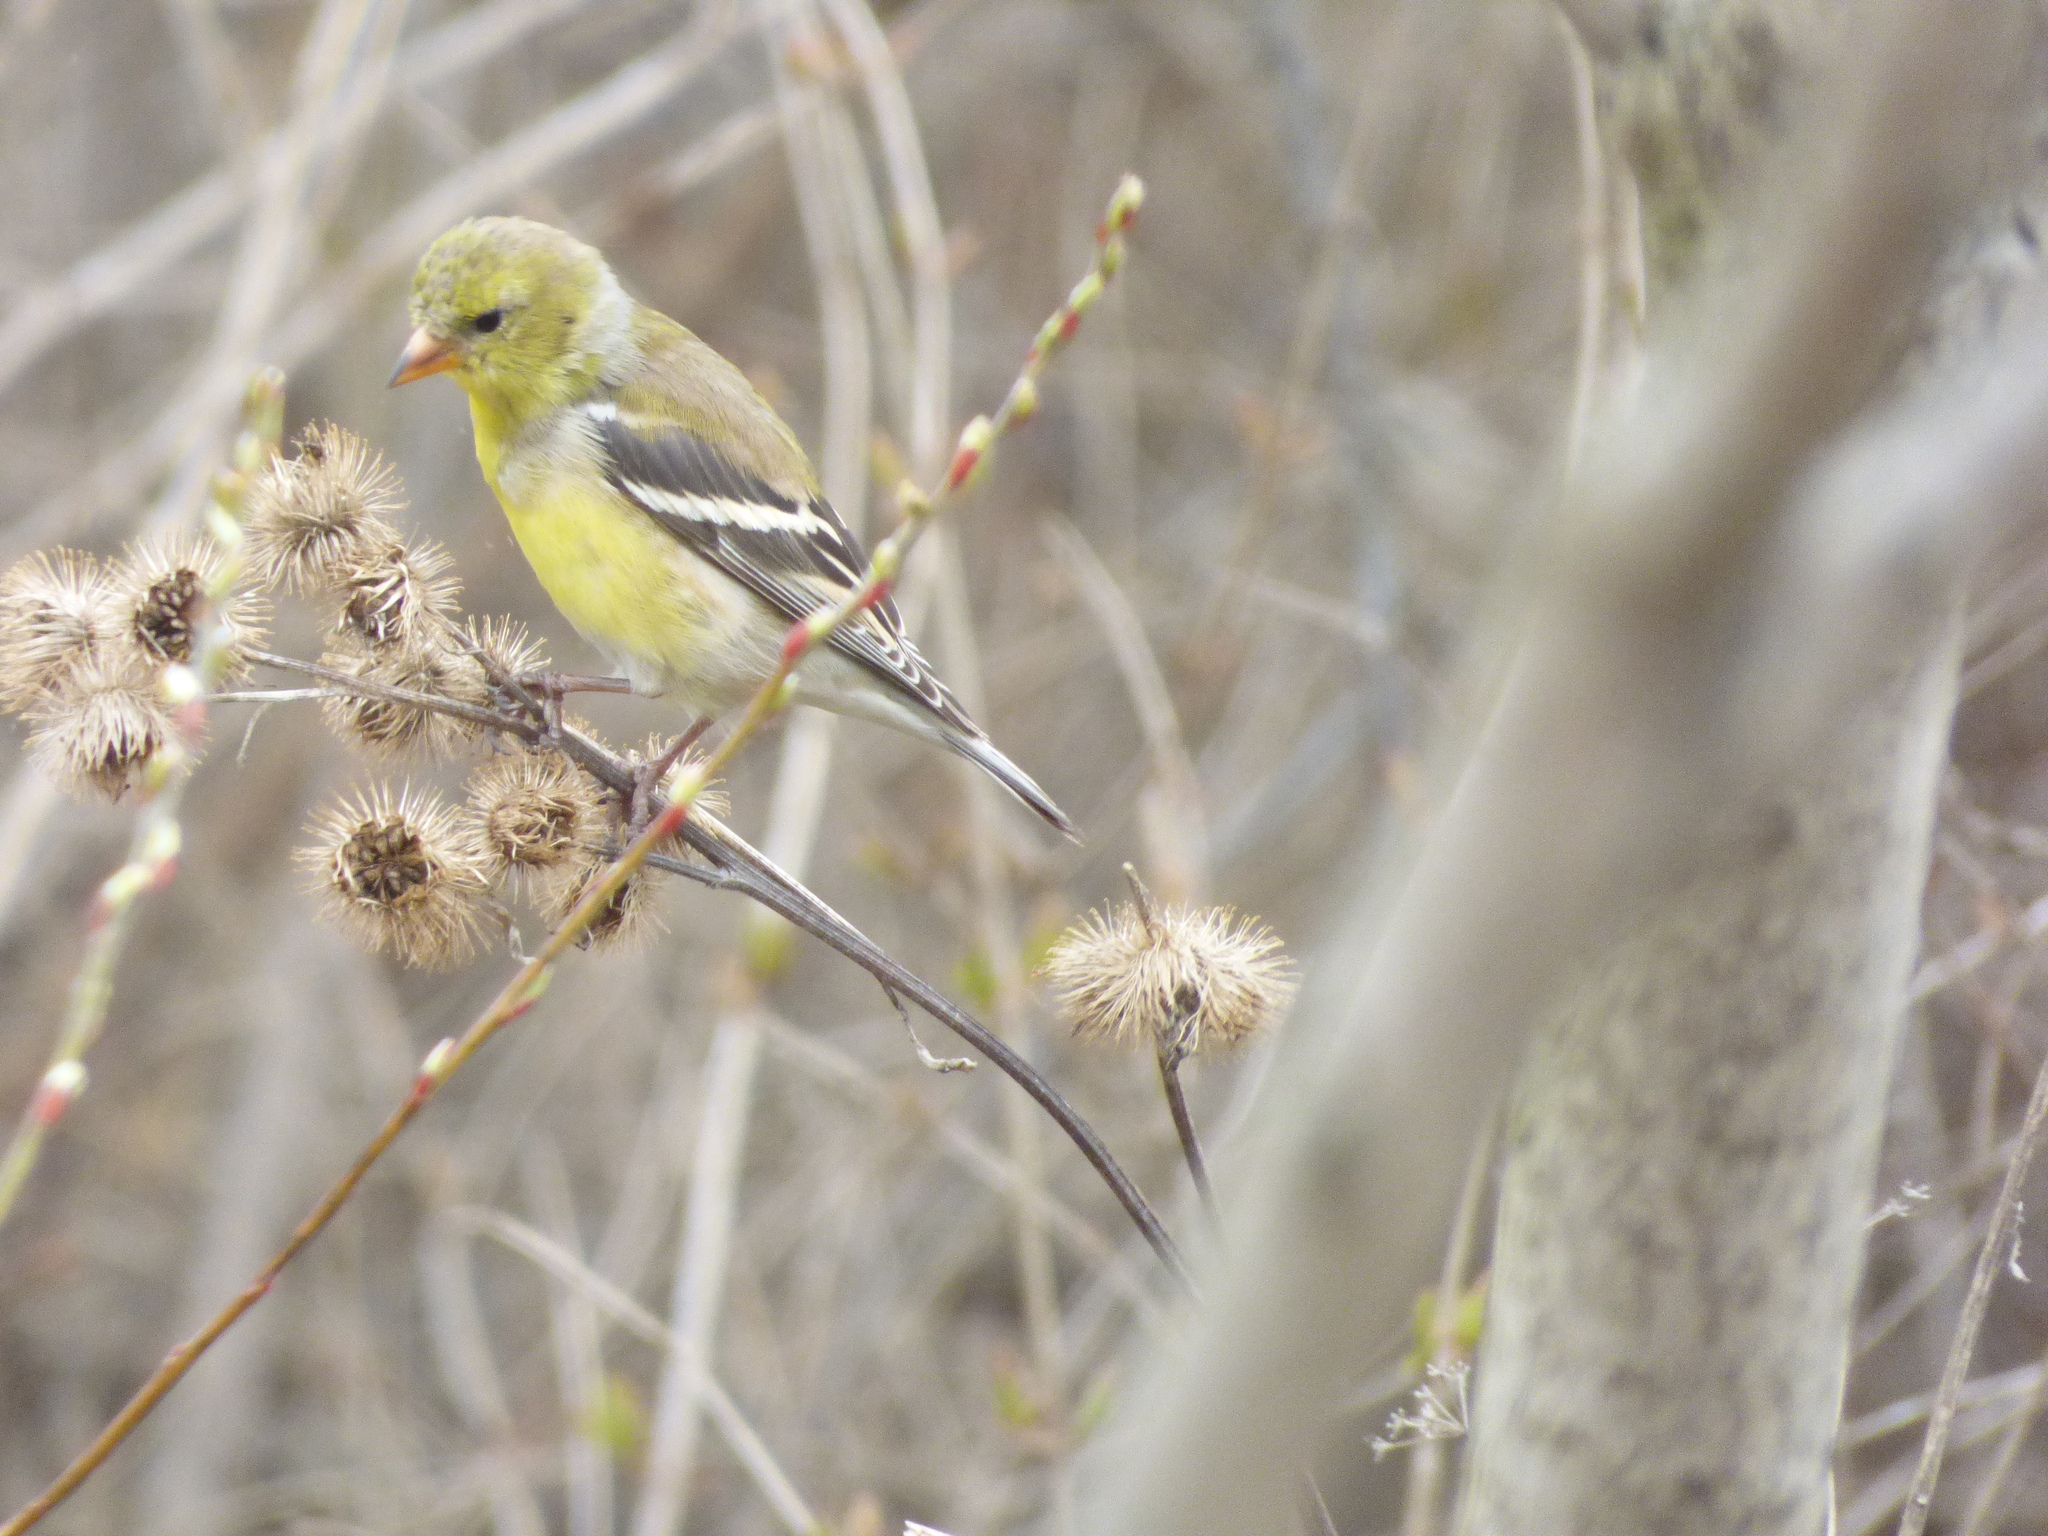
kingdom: Animalia
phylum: Chordata
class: Aves
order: Passeriformes
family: Fringillidae
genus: Spinus
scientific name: Spinus tristis
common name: American goldfinch
